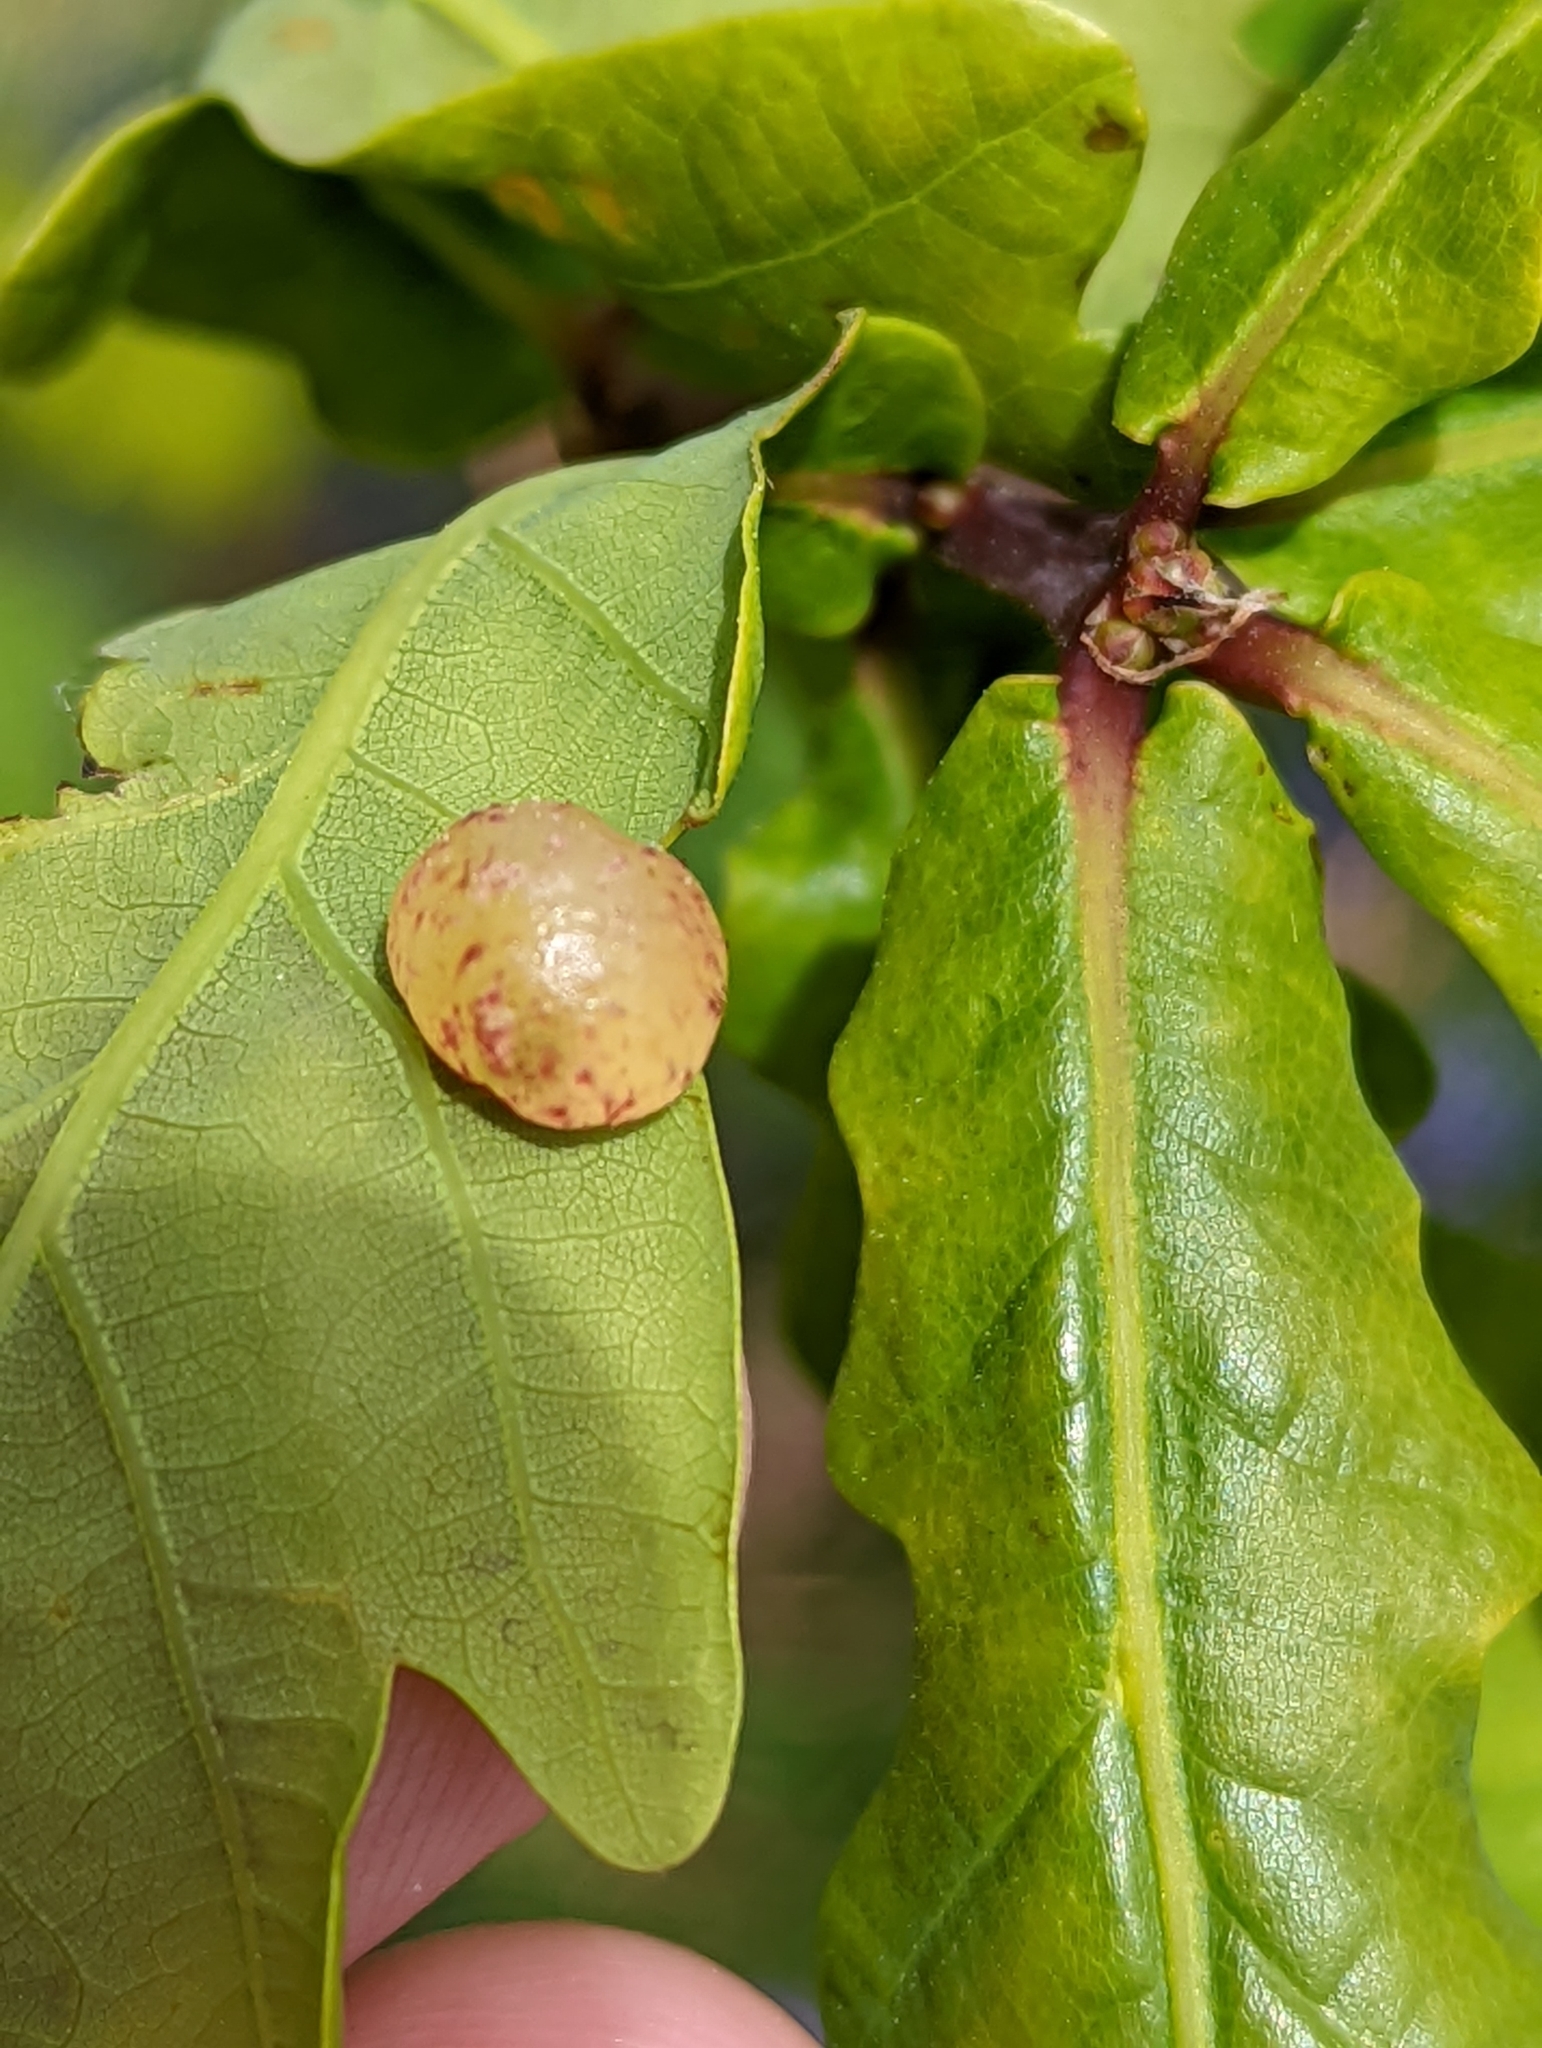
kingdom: Animalia
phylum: Arthropoda
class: Insecta
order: Hymenoptera
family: Cynipidae
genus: Neuroterus
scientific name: Neuroterus quercusbaccarum
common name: Common spangle gall
